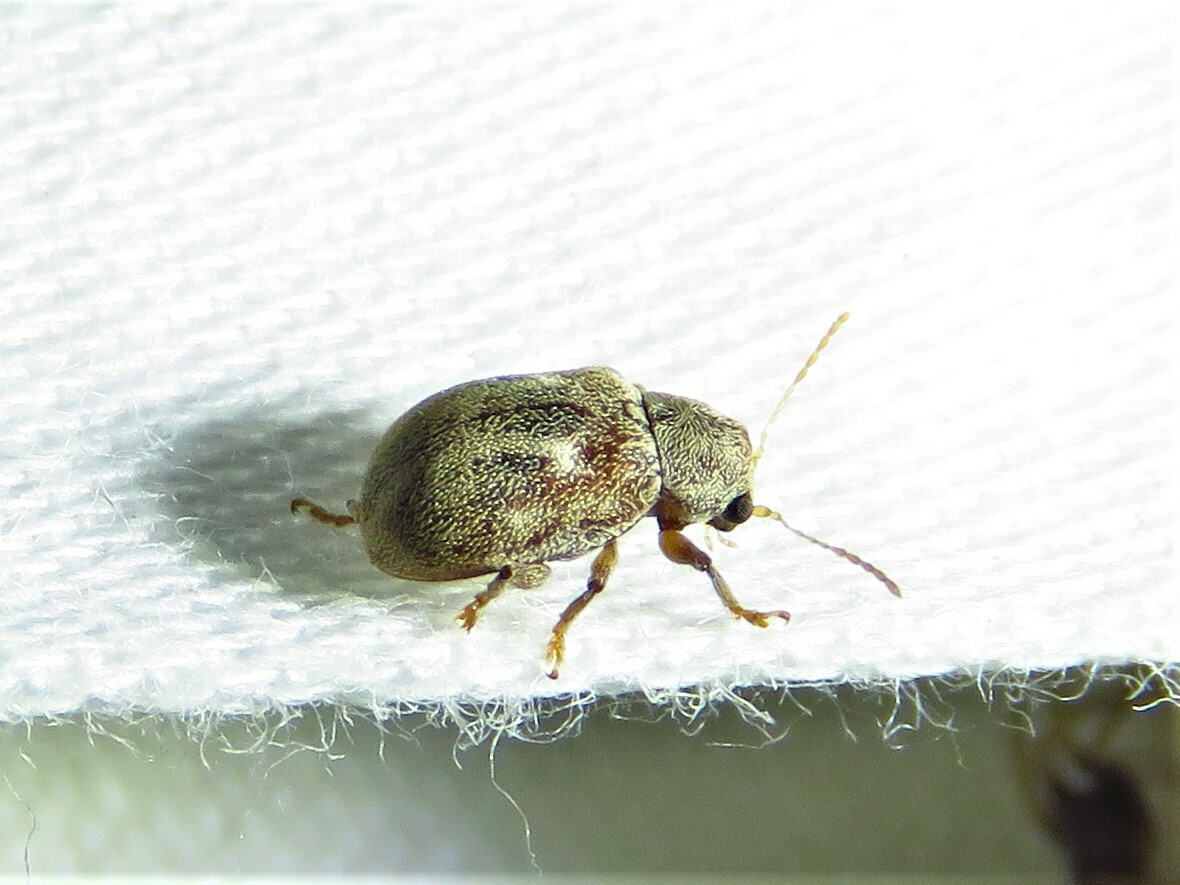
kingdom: Animalia
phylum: Arthropoda
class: Insecta
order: Coleoptera
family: Chrysomelidae
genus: Demotina
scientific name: Demotina modesta
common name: Leaf beetle
